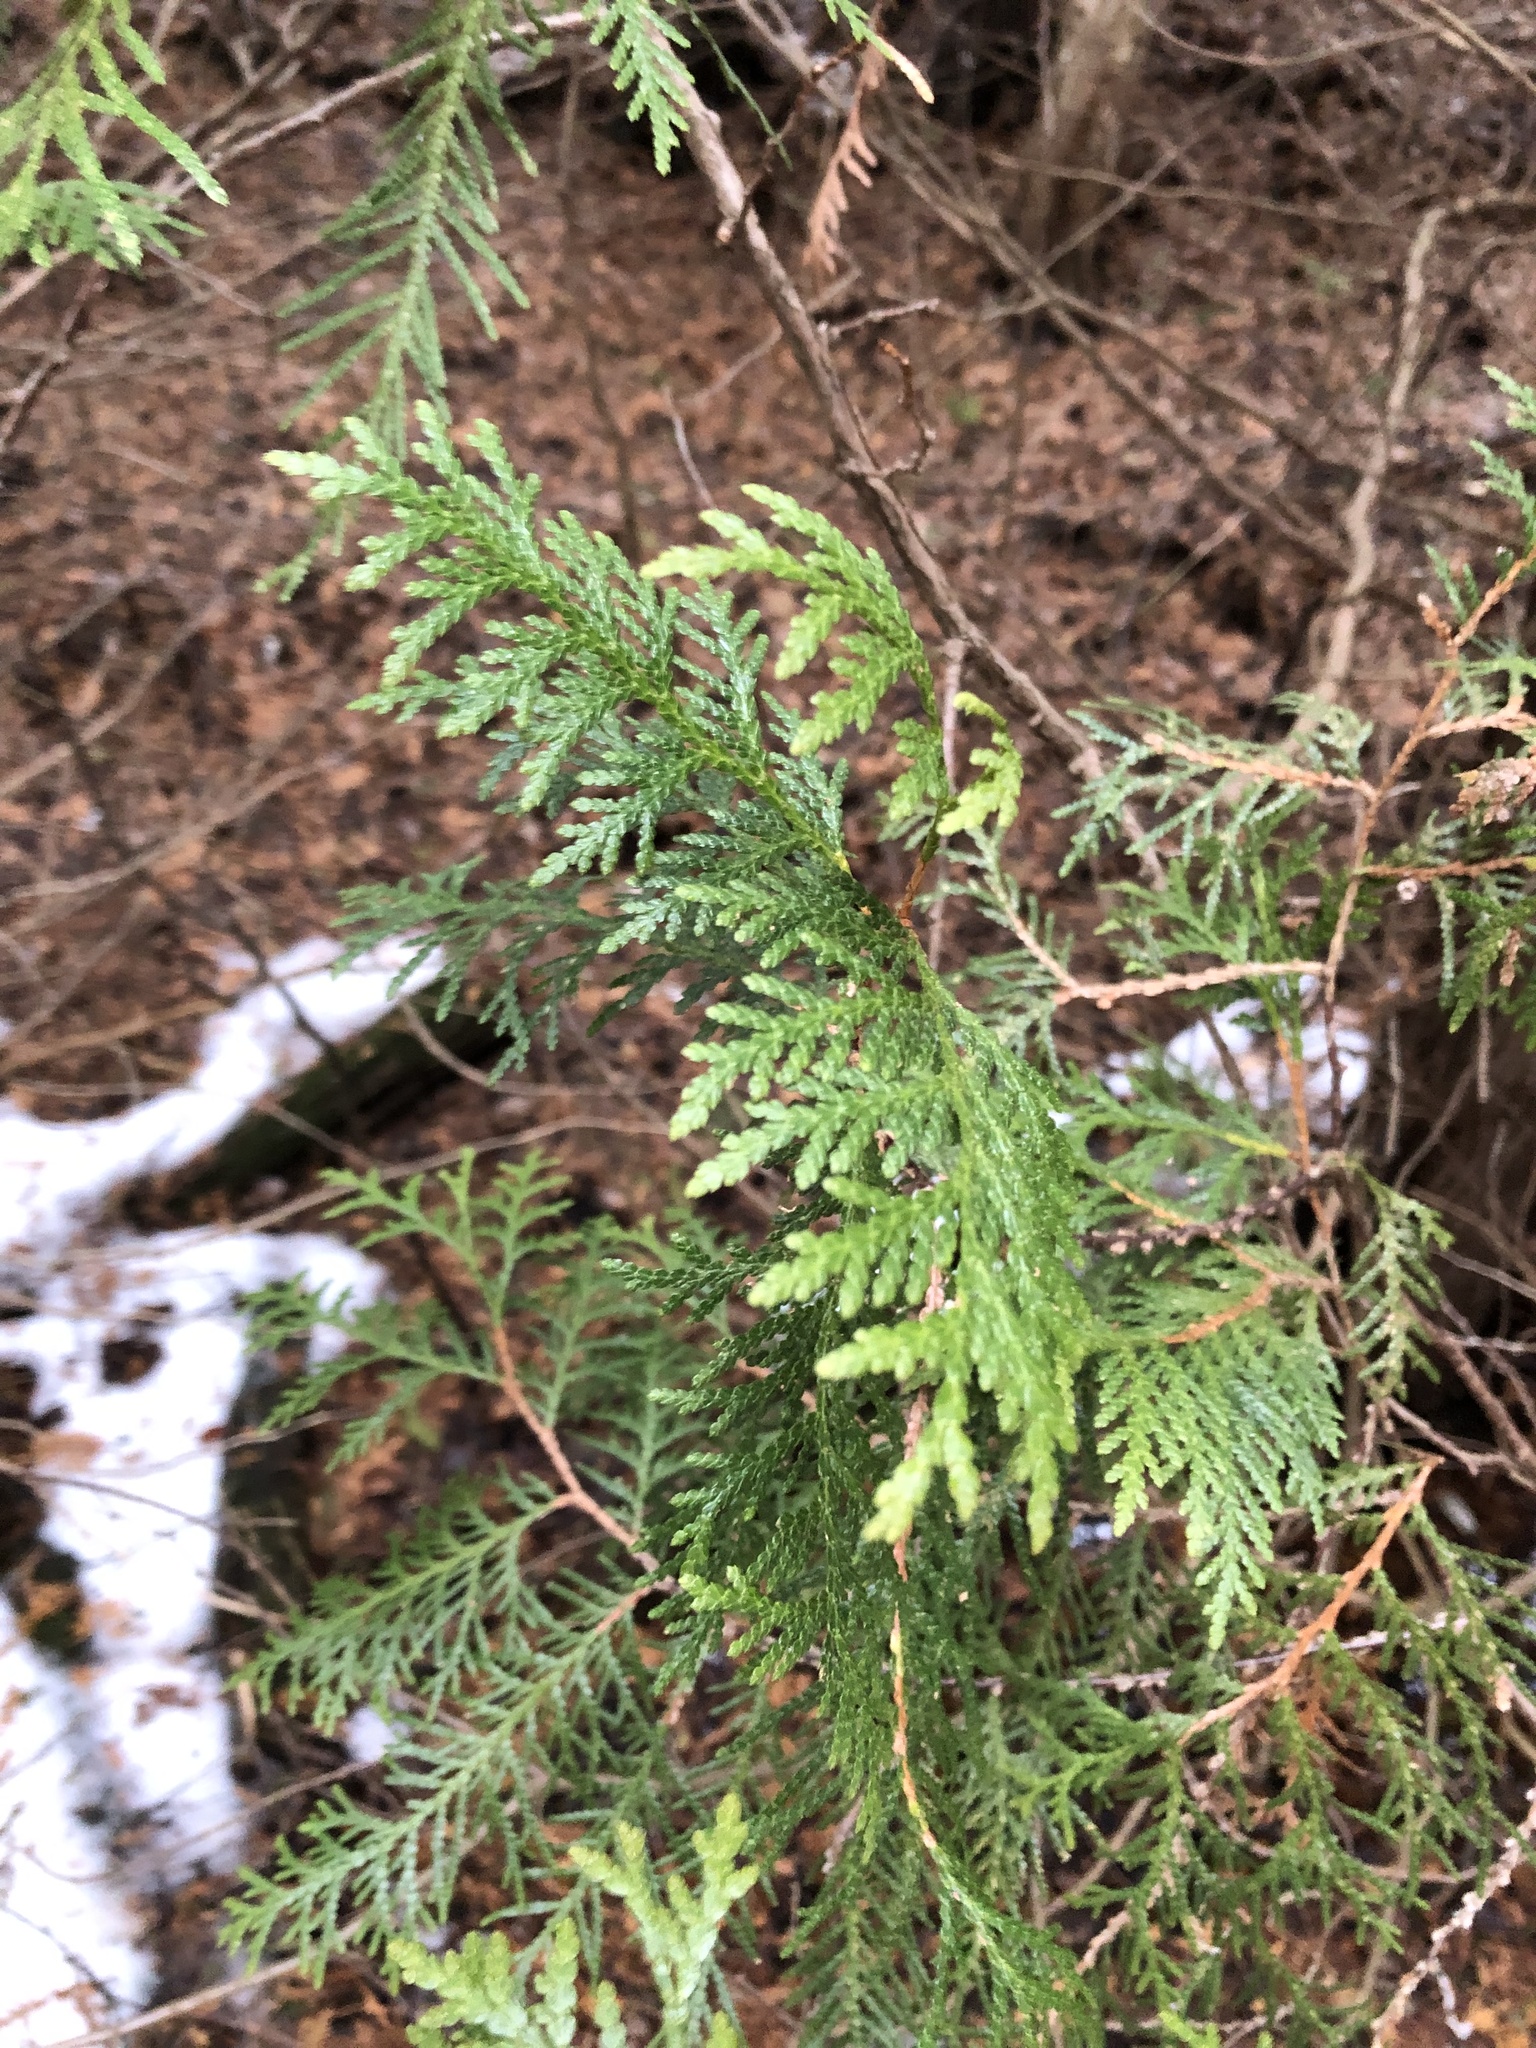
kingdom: Plantae
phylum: Tracheophyta
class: Pinopsida
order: Pinales
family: Cupressaceae
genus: Thuja
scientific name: Thuja occidentalis
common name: Northern white-cedar
